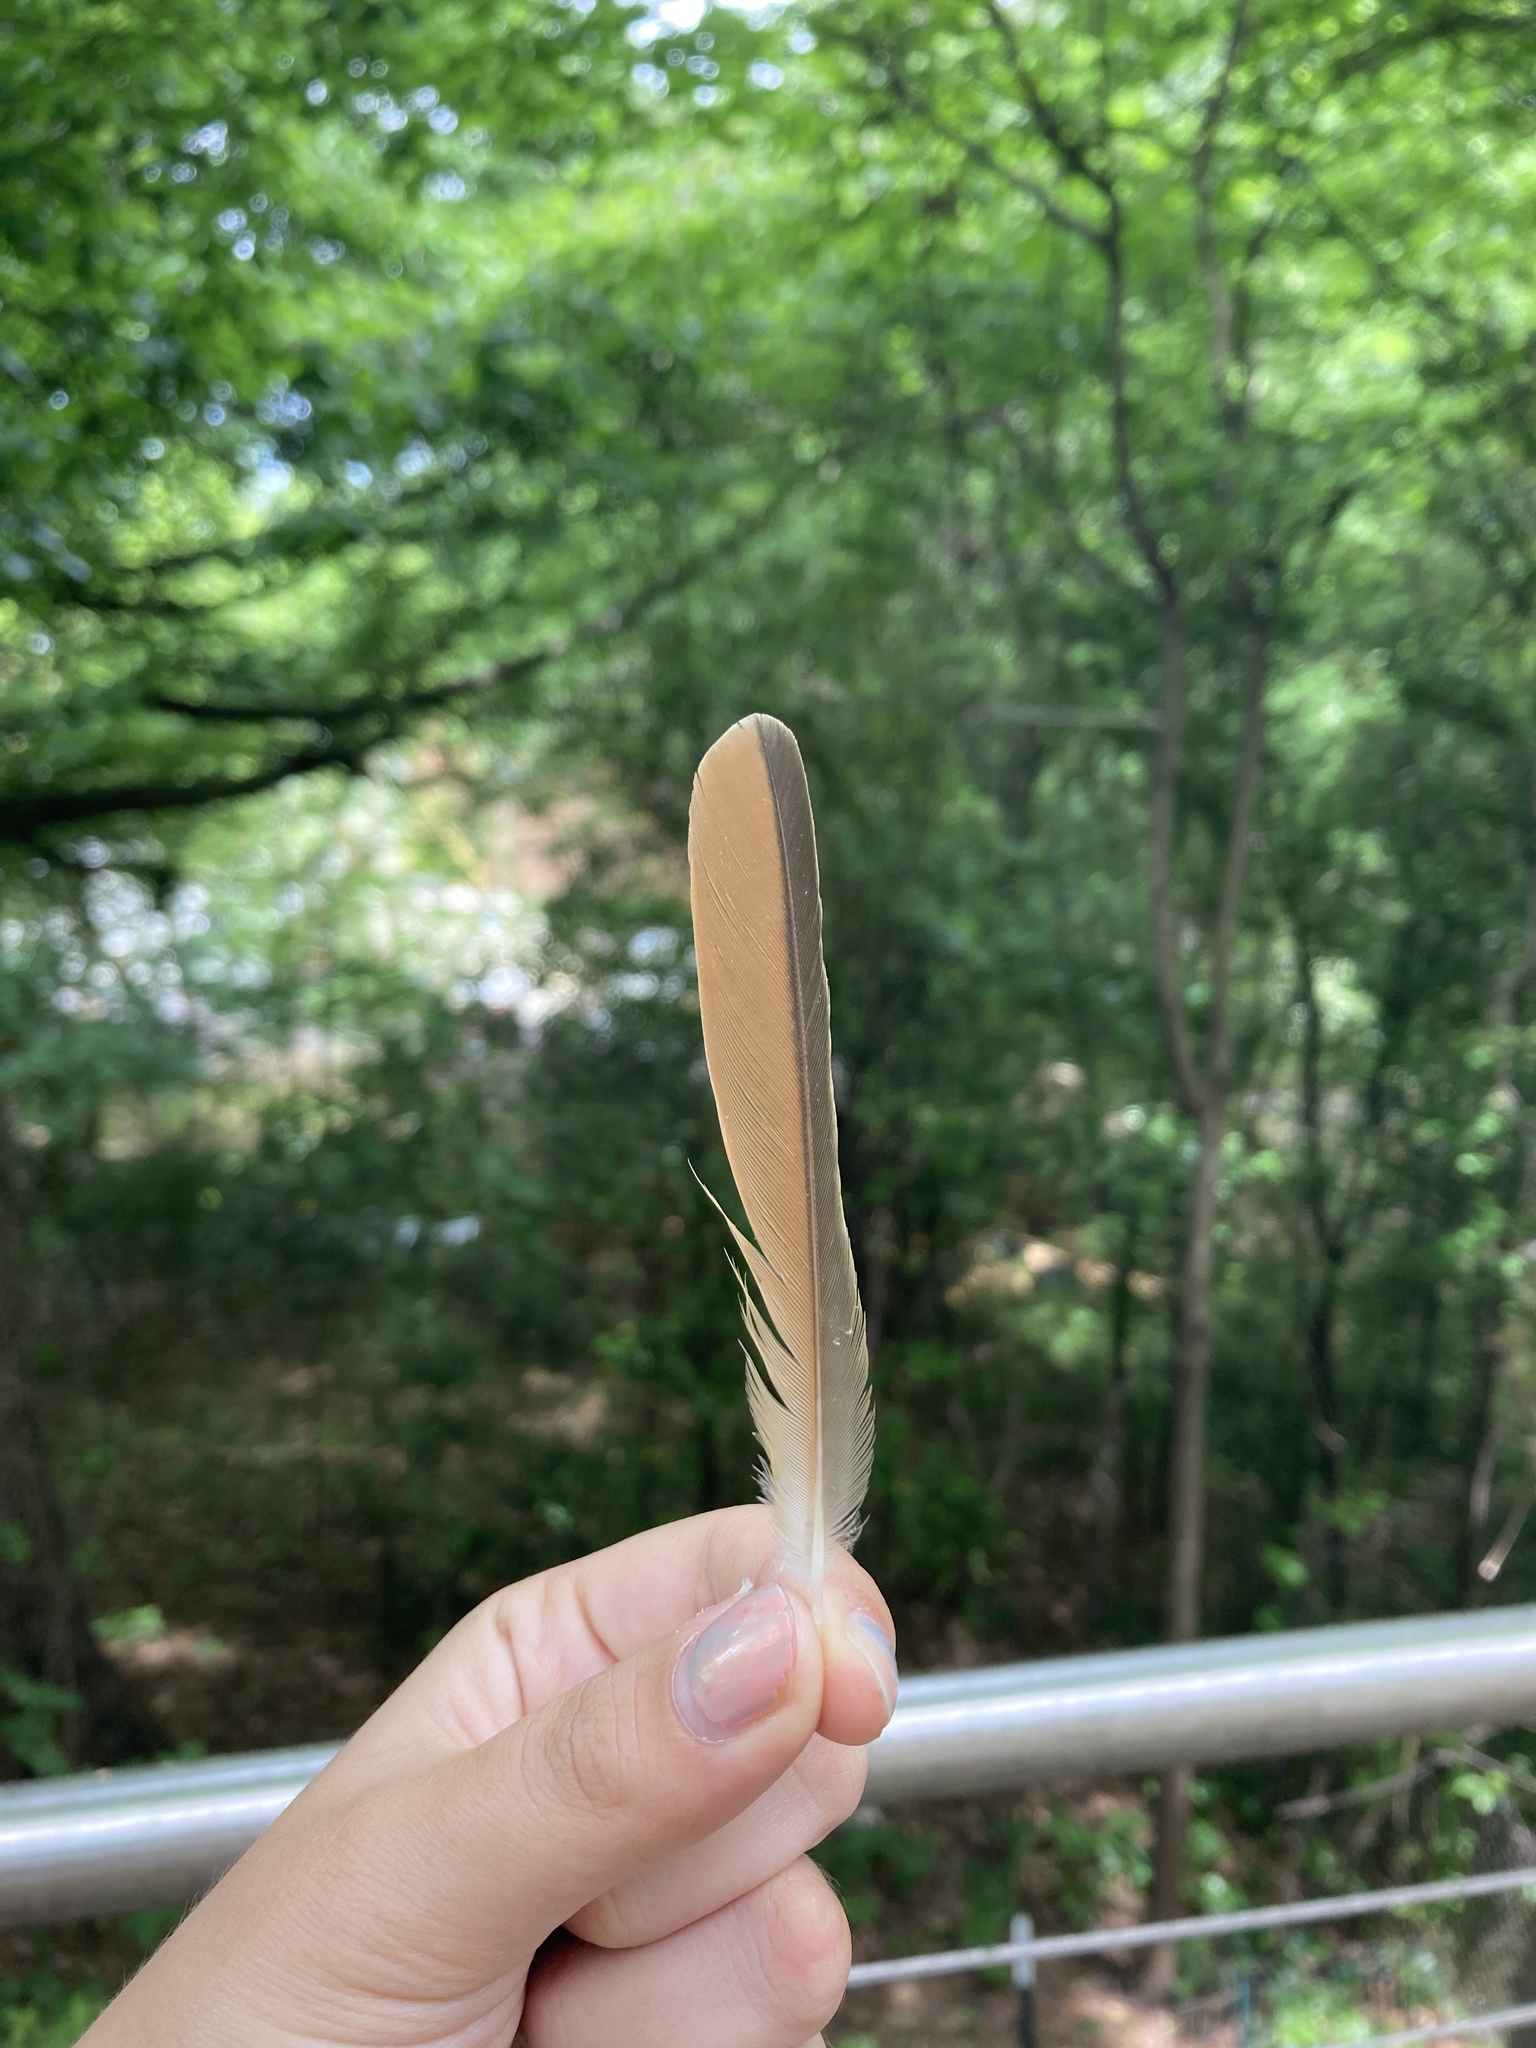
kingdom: Animalia
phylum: Chordata
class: Aves
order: Passeriformes
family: Tyrannidae
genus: Myiarchus
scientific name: Myiarchus crinitus
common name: Great crested flycatcher
